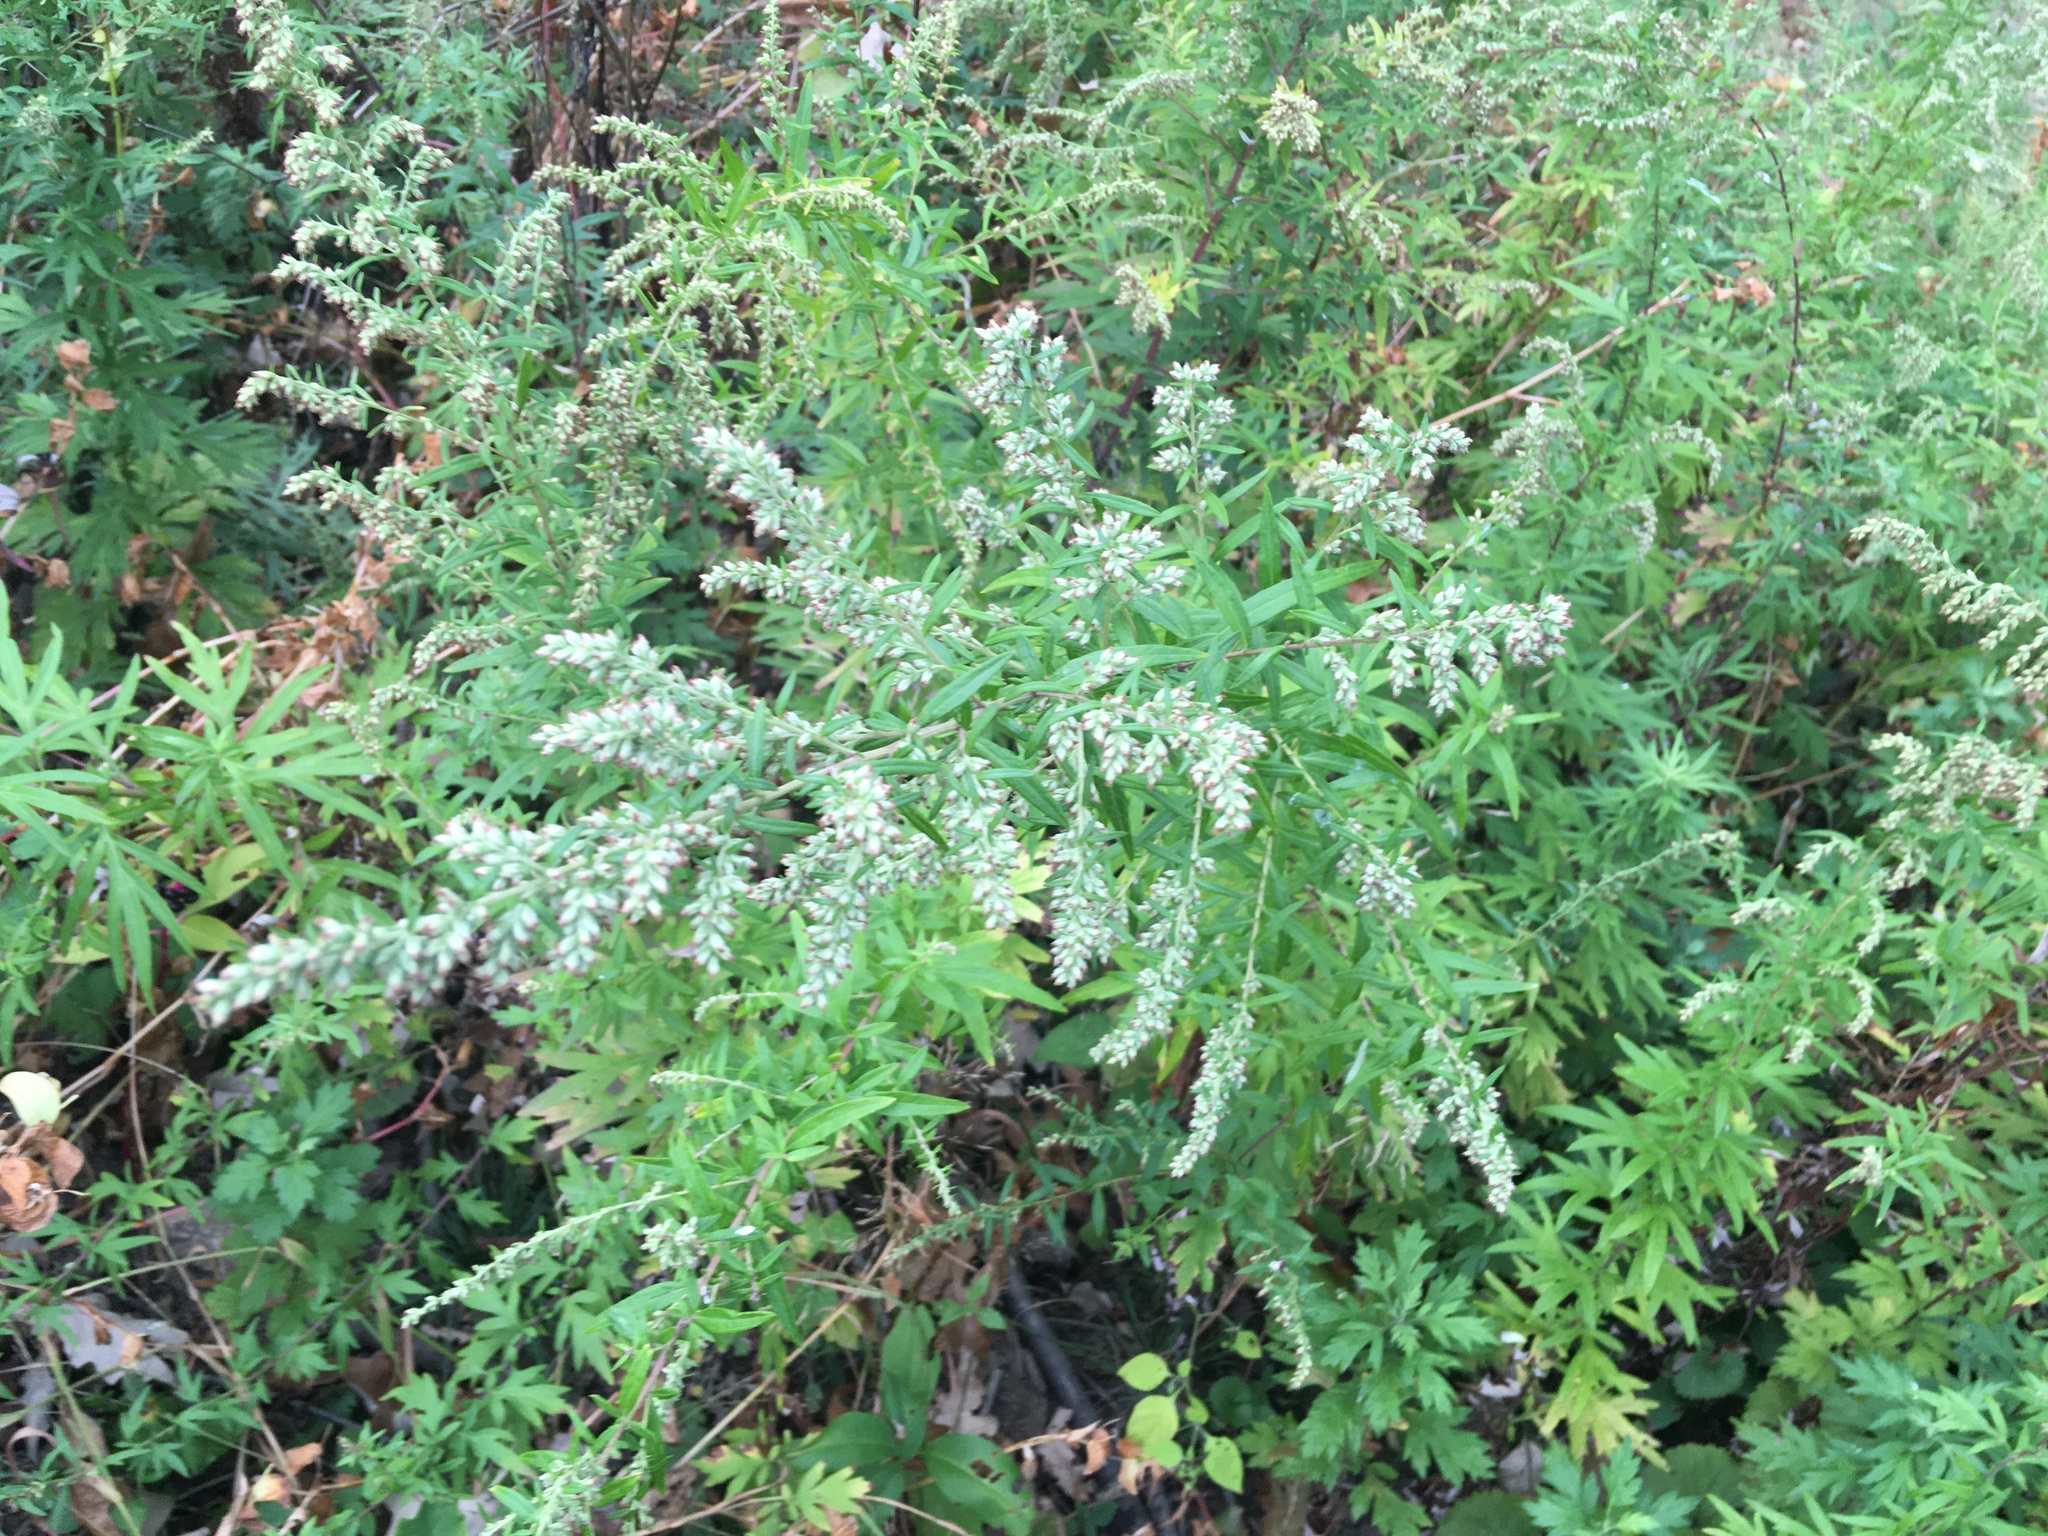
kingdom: Plantae
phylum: Tracheophyta
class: Magnoliopsida
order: Asterales
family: Asteraceae
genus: Artemisia
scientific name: Artemisia vulgaris
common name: Mugwort
